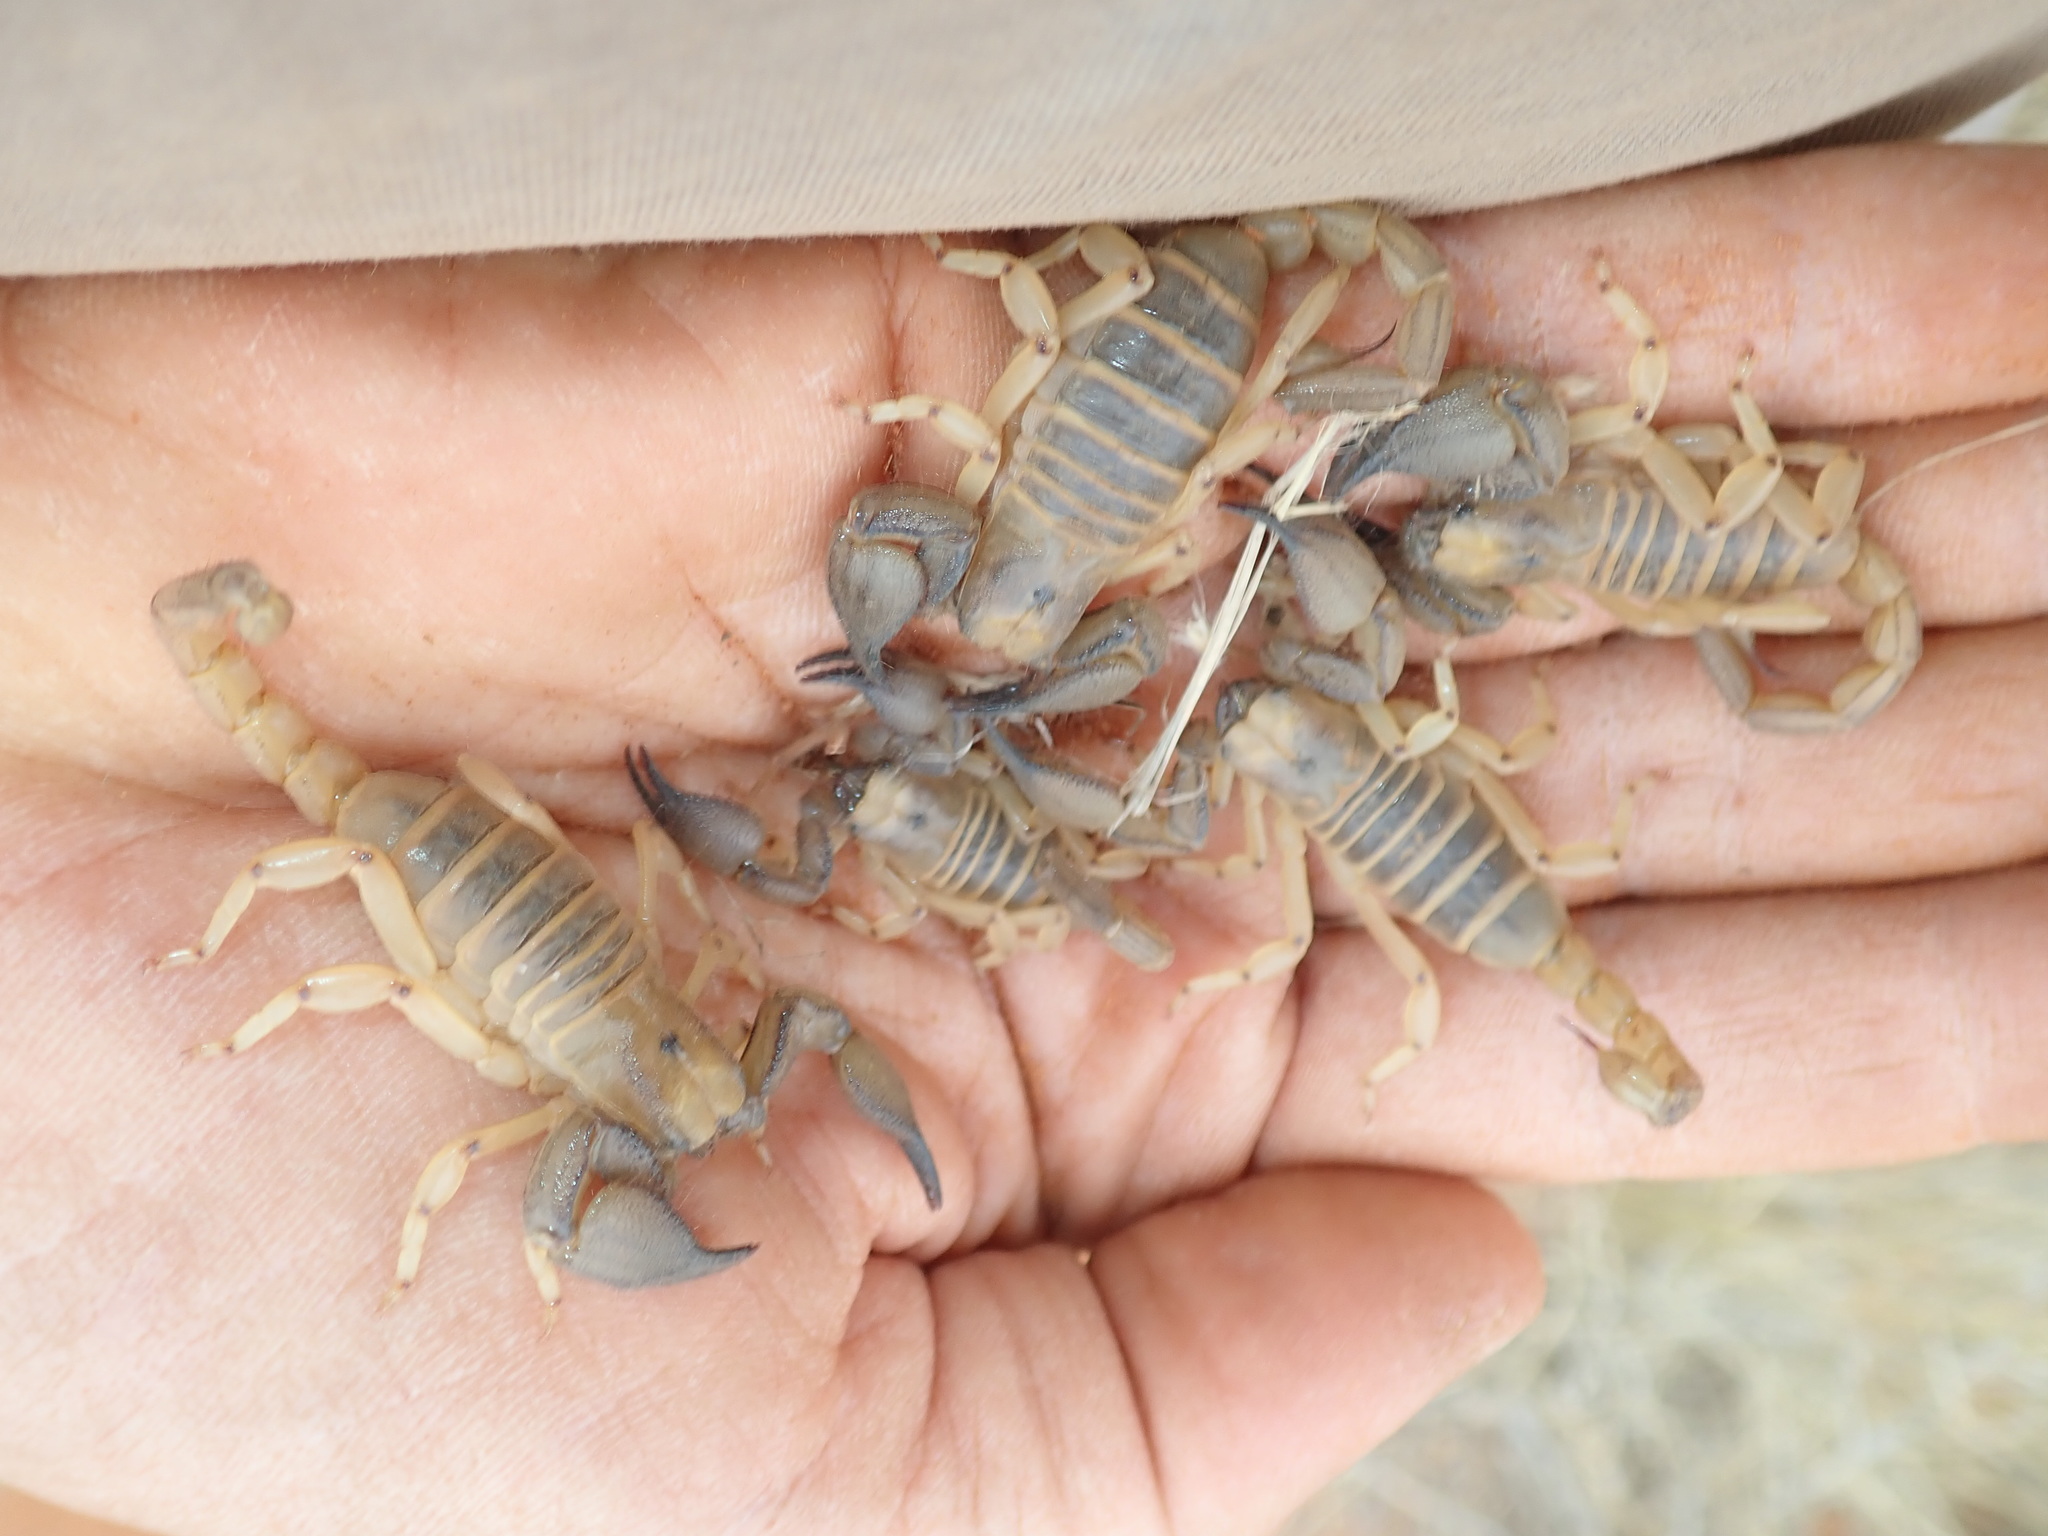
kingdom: Animalia
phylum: Arthropoda
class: Arachnida
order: Scorpiones
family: Scorpionidae
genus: Opistophthalmus
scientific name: Opistophthalmus fitzsimonsi
